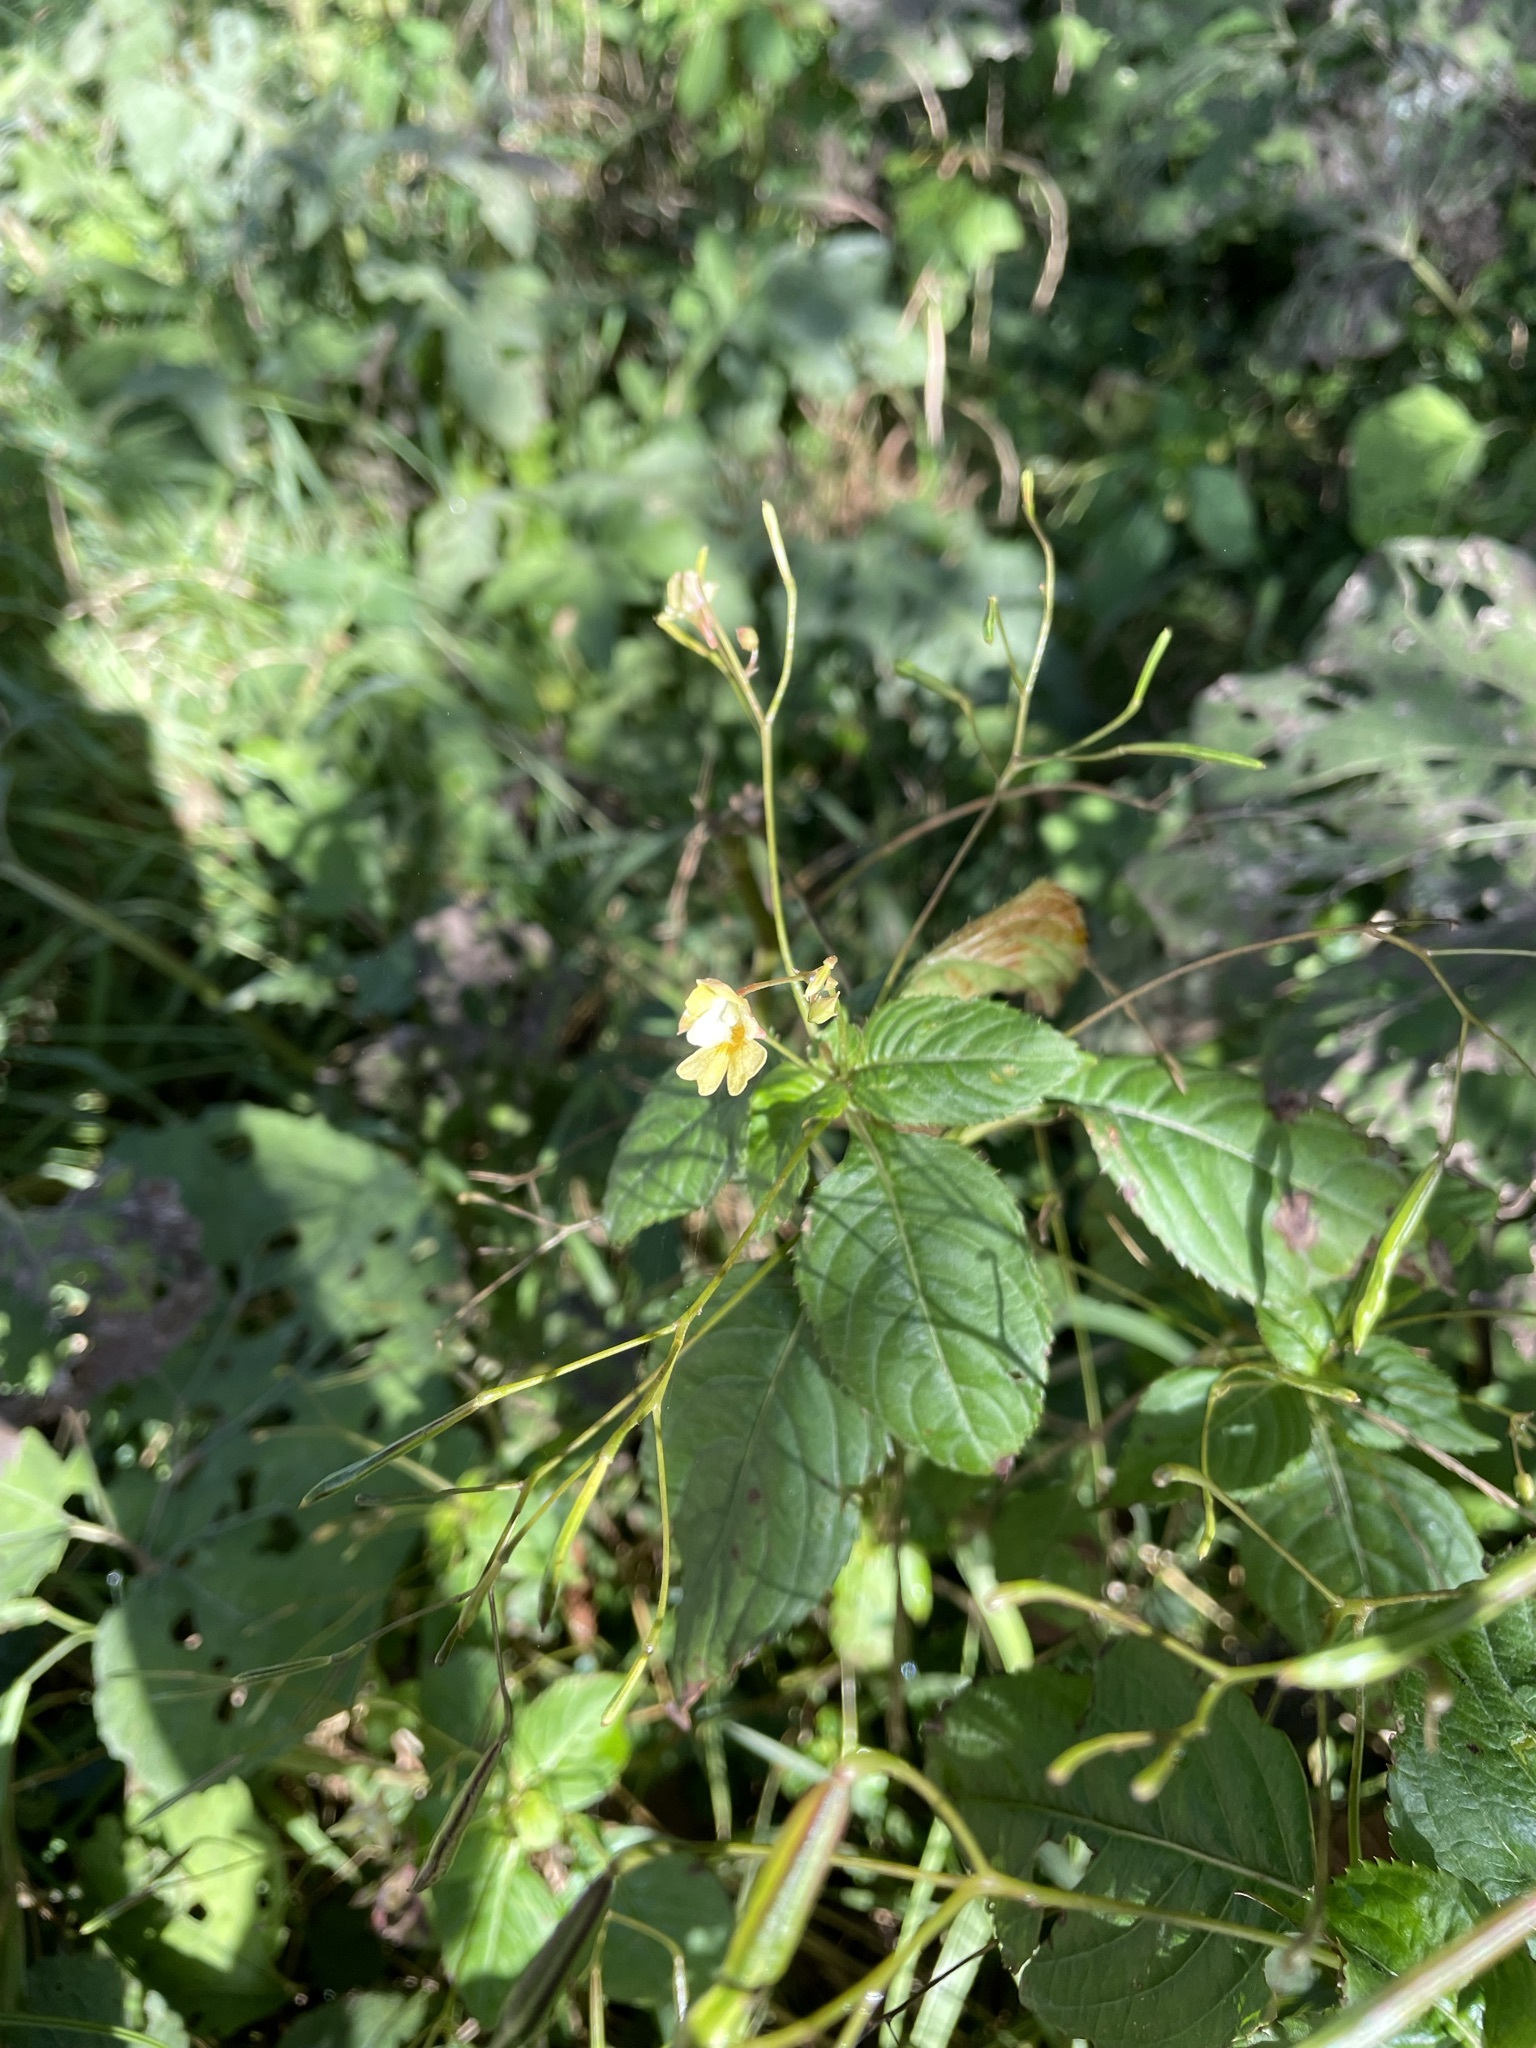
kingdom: Plantae
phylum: Tracheophyta
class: Magnoliopsida
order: Ericales
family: Balsaminaceae
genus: Impatiens
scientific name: Impatiens parviflora
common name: Small balsam
